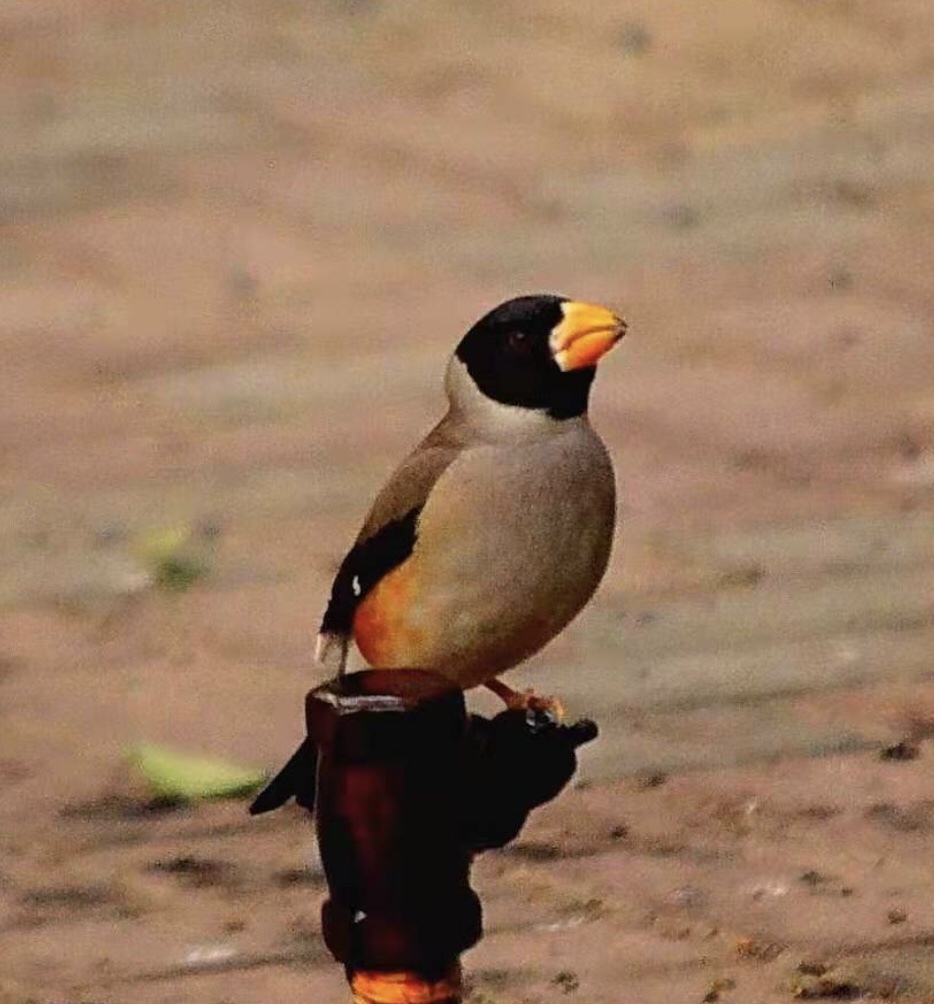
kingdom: Animalia
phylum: Chordata
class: Aves
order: Passeriformes
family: Fringillidae
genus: Eophona
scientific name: Eophona migratoria
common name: Yellow-billed grosbeak
